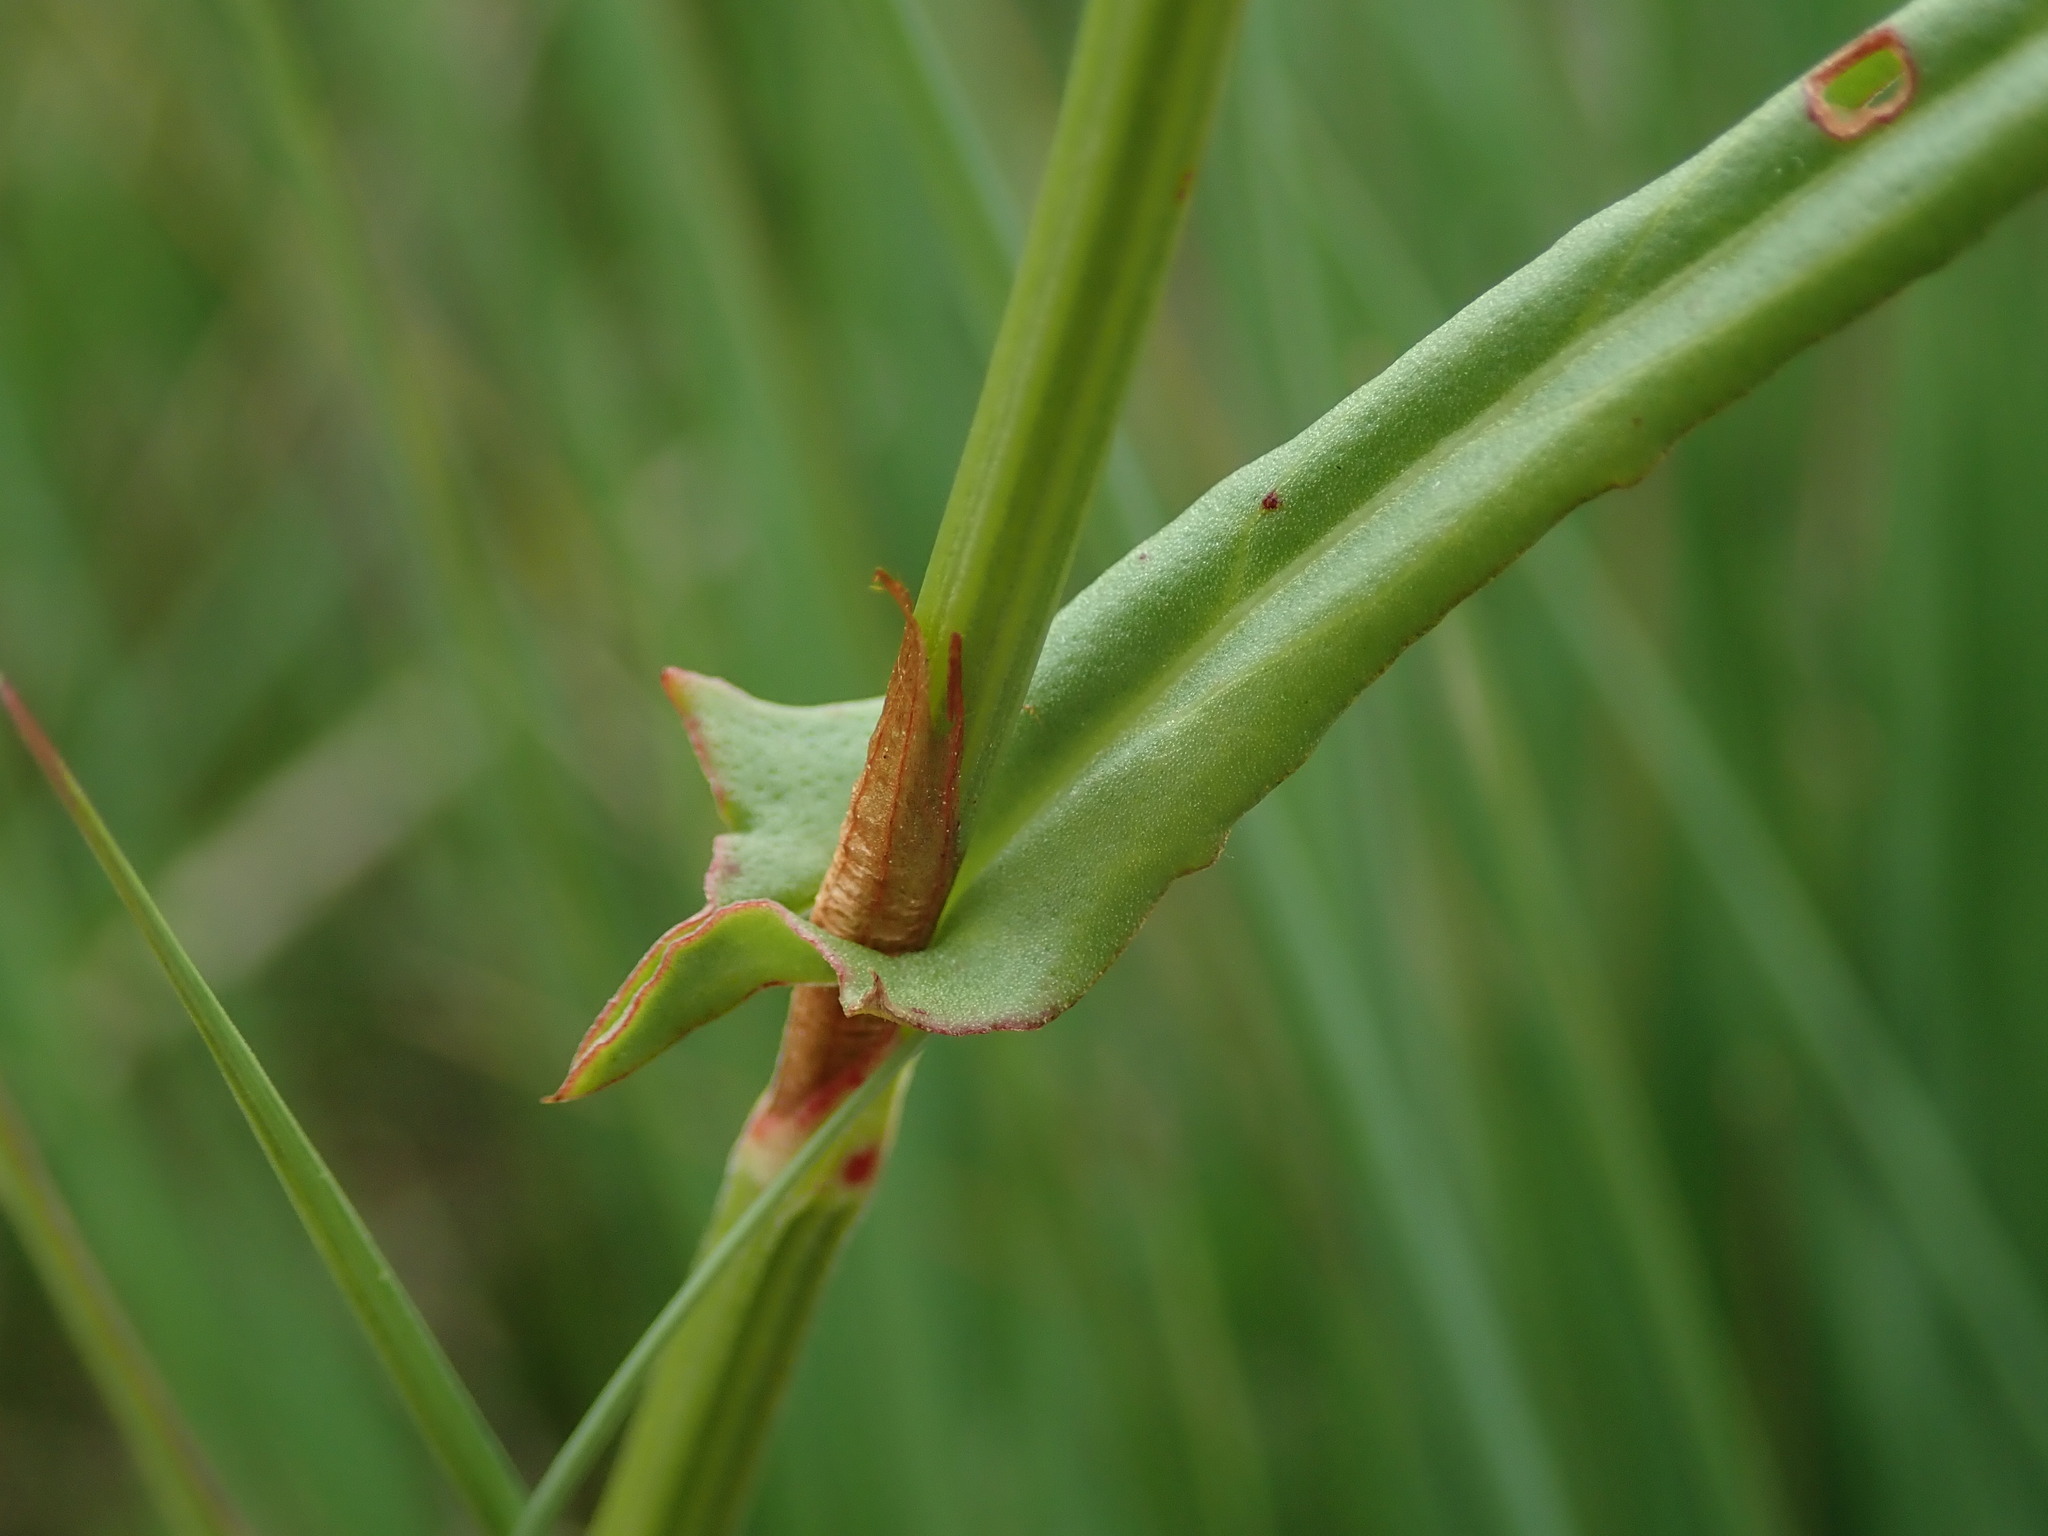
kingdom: Plantae
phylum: Tracheophyta
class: Magnoliopsida
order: Caryophyllales
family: Polygonaceae
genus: Rumex
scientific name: Rumex acetosa
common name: Garden sorrel
